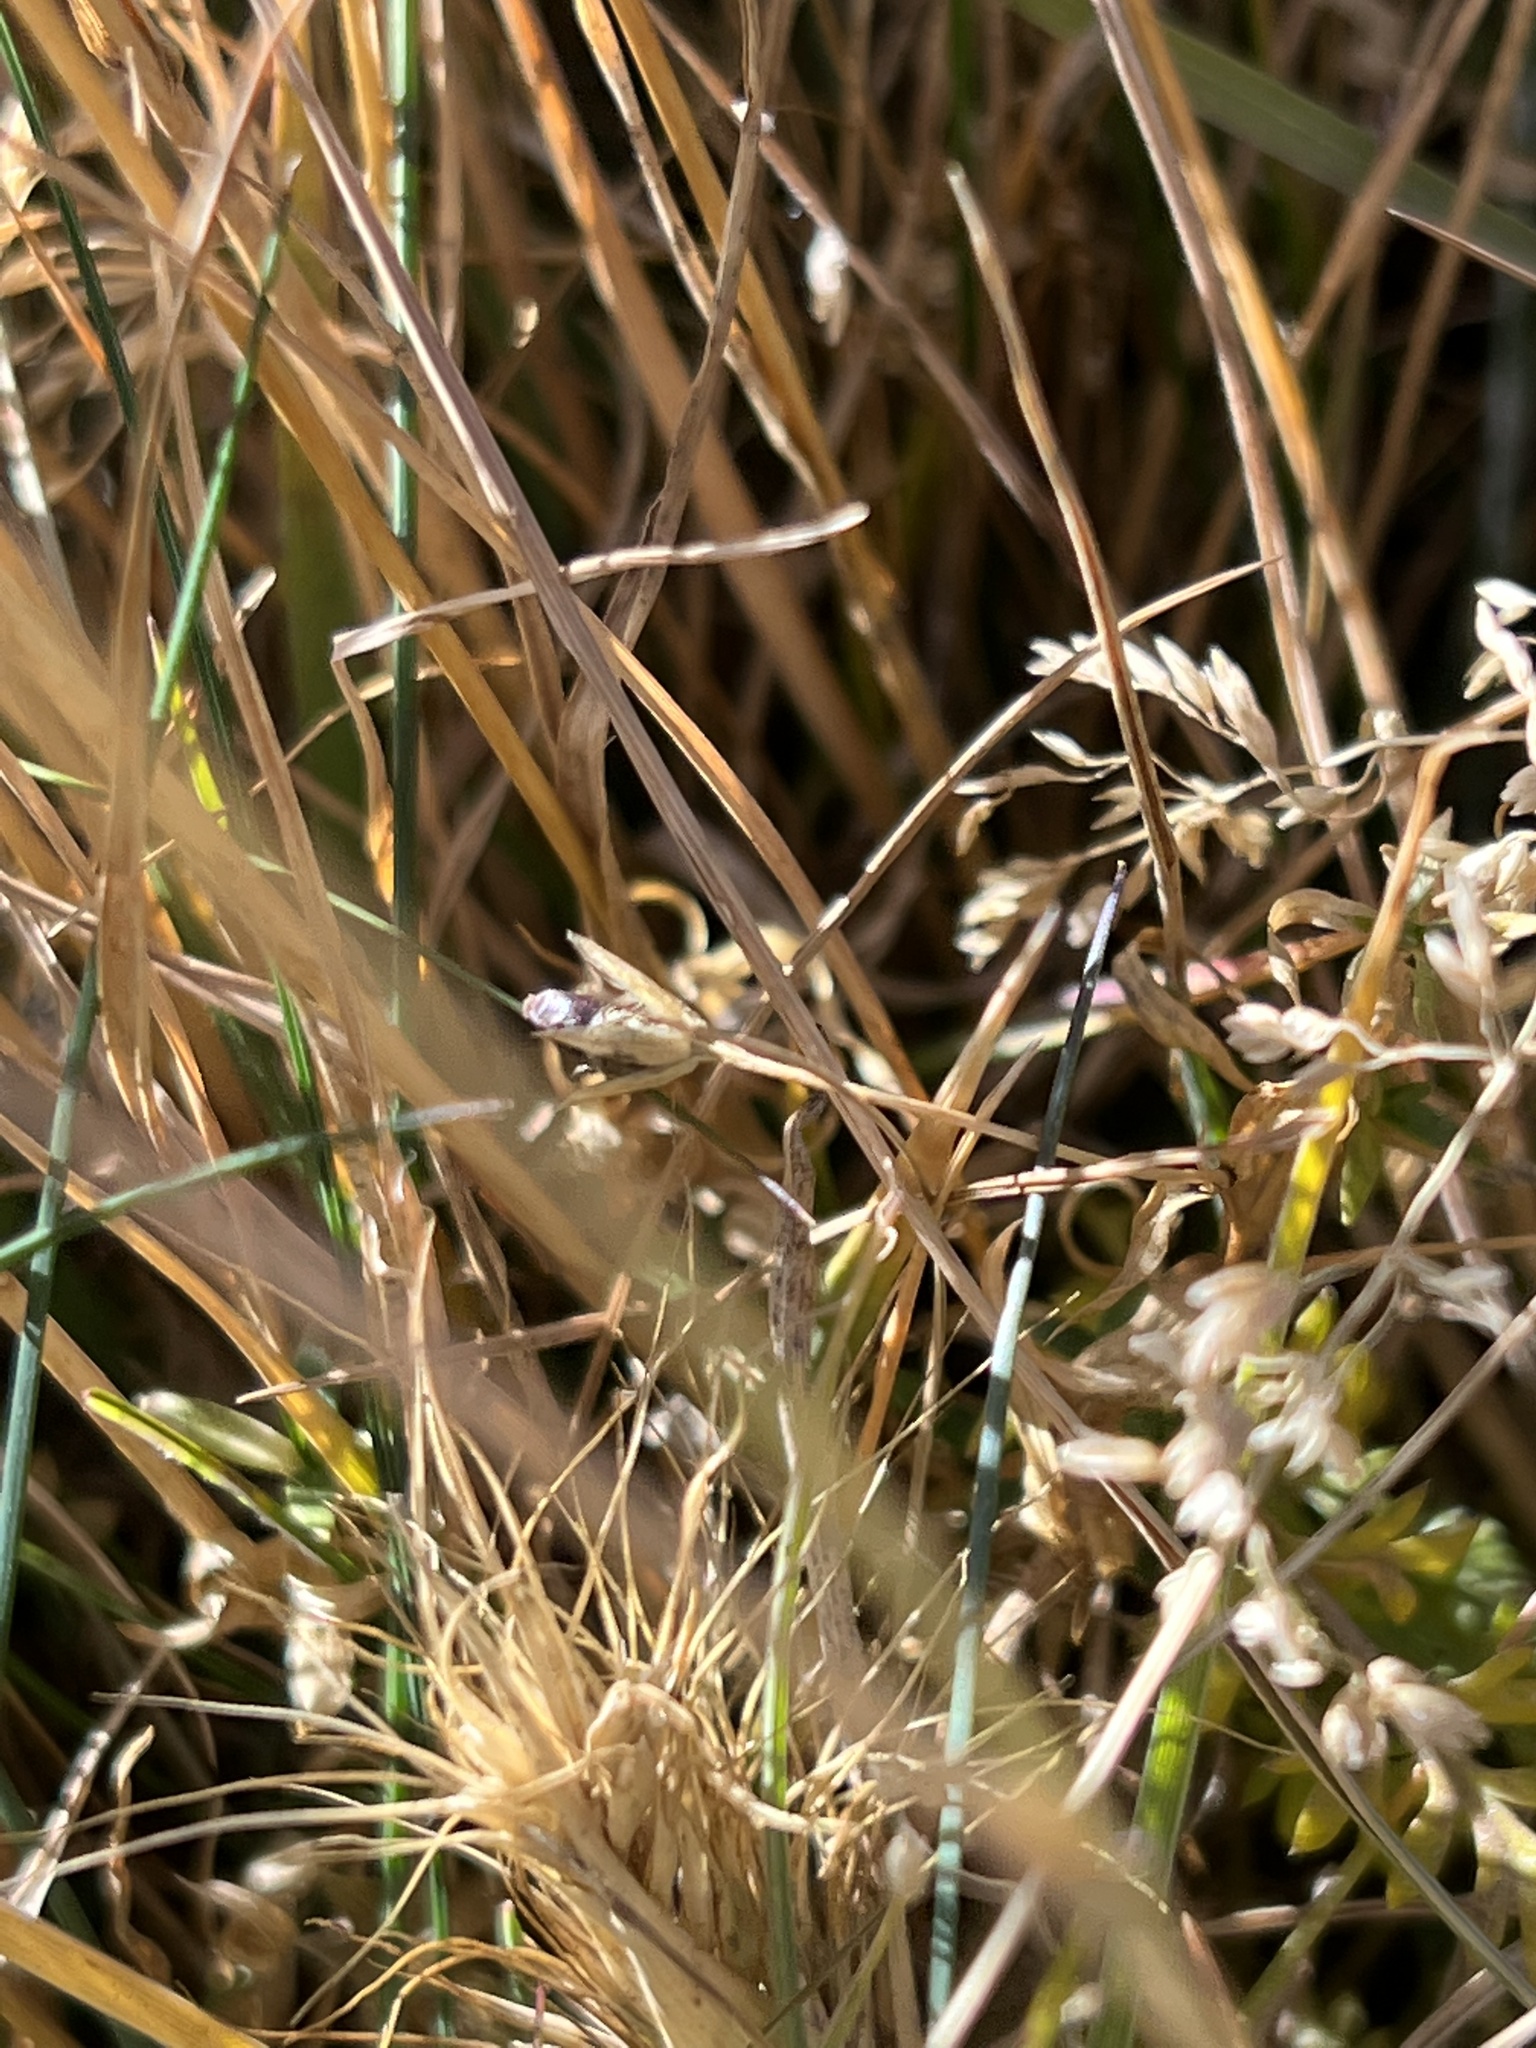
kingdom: Plantae
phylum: Tracheophyta
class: Liliopsida
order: Poales
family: Poaceae
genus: Agropyron
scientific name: Agropyron cristatum
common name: Crested wheatgrass
